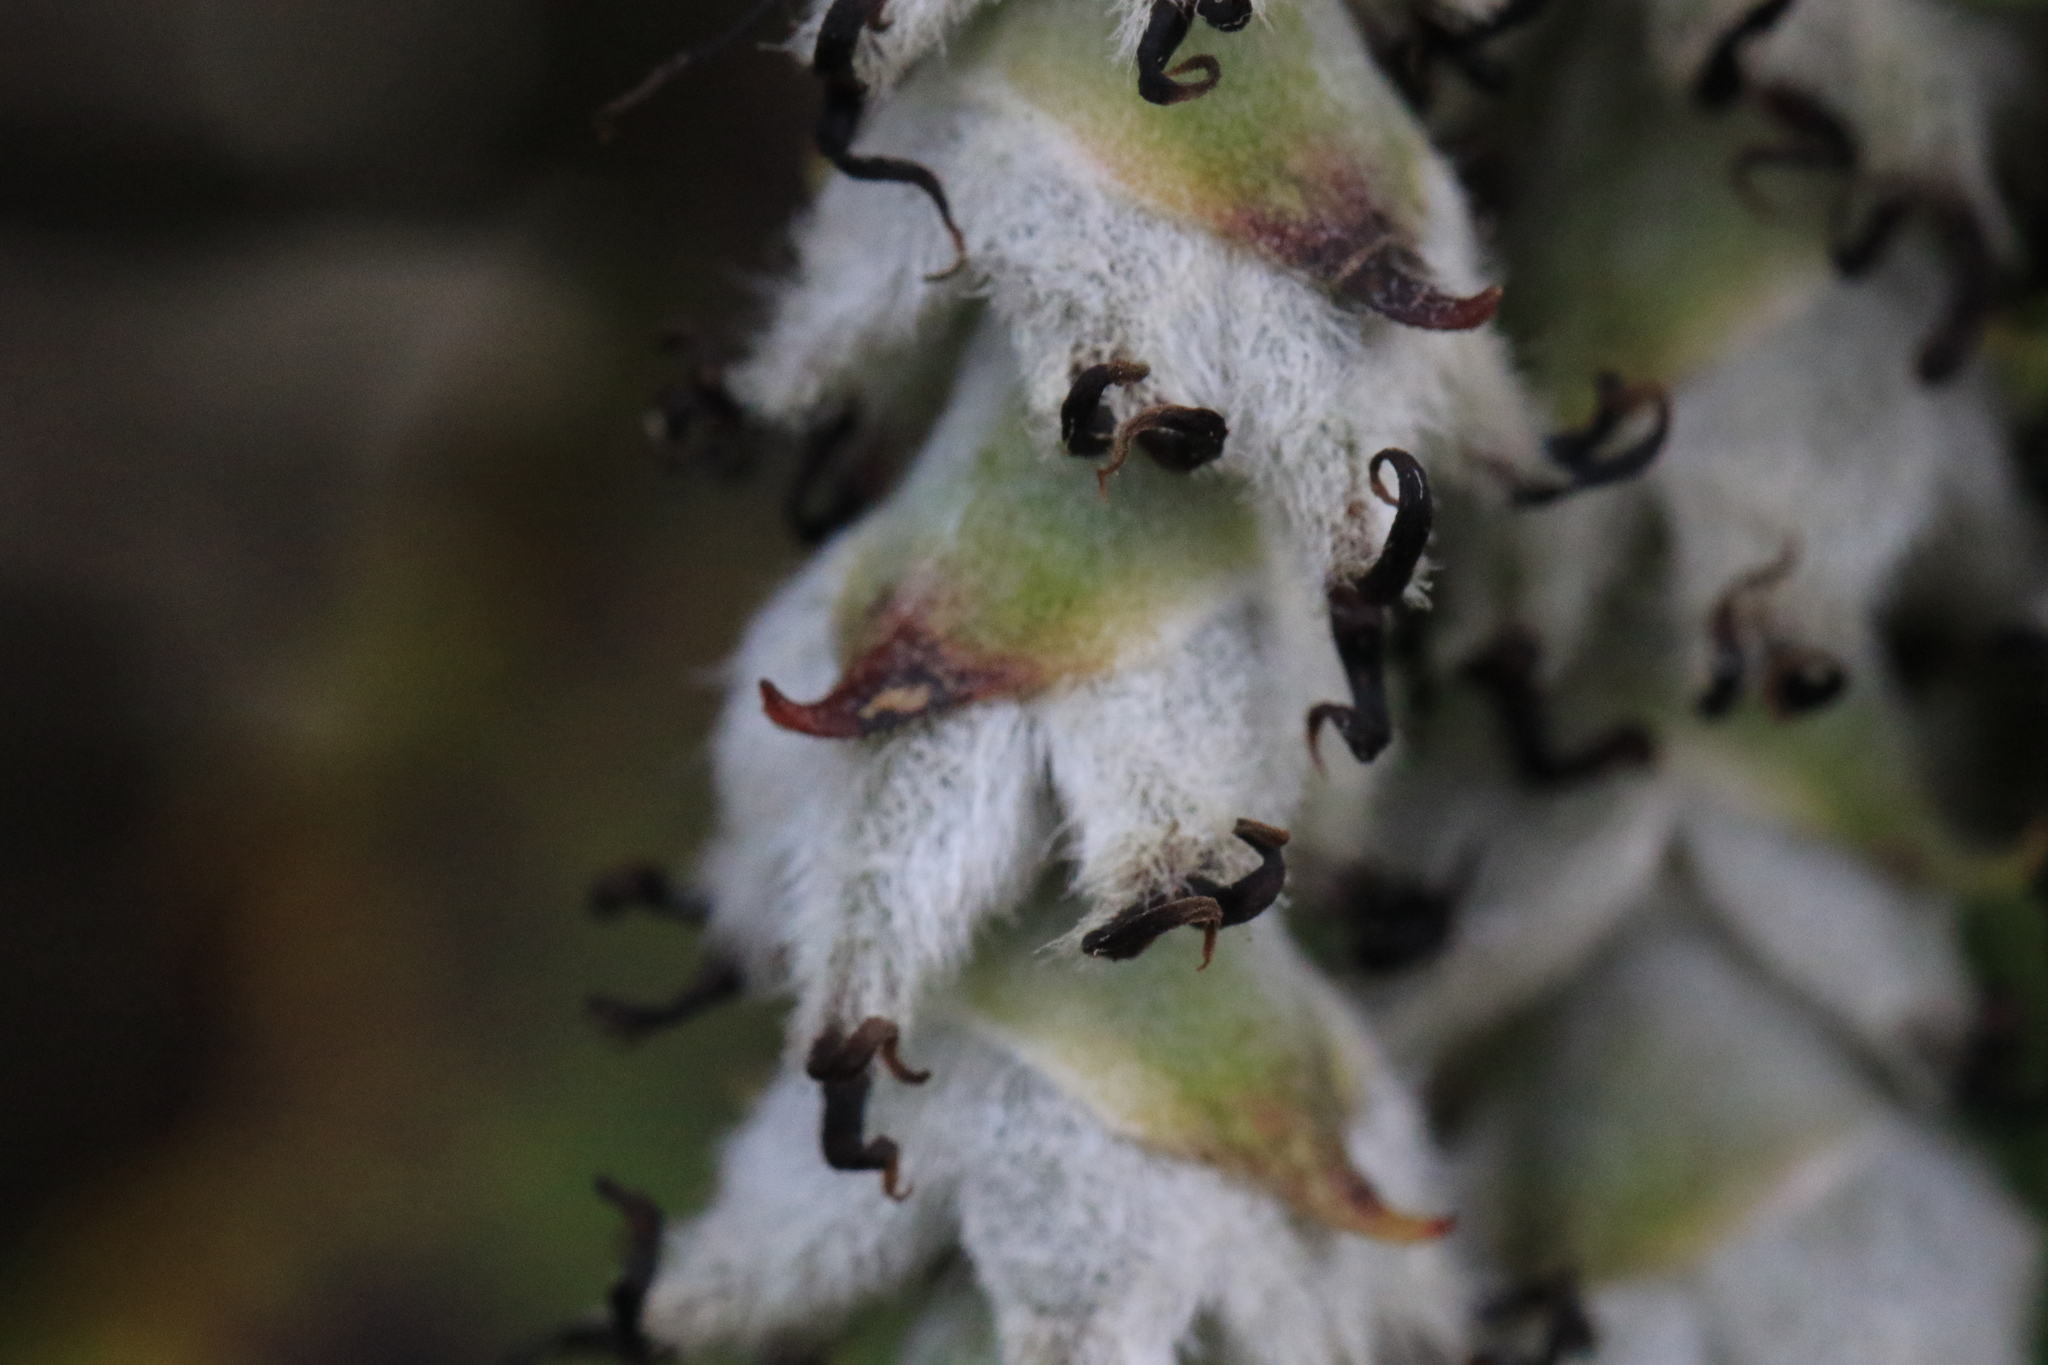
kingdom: Plantae
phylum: Tracheophyta
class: Magnoliopsida
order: Garryales
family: Garryaceae
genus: Garrya
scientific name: Garrya elliptica
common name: Silk-tassel
